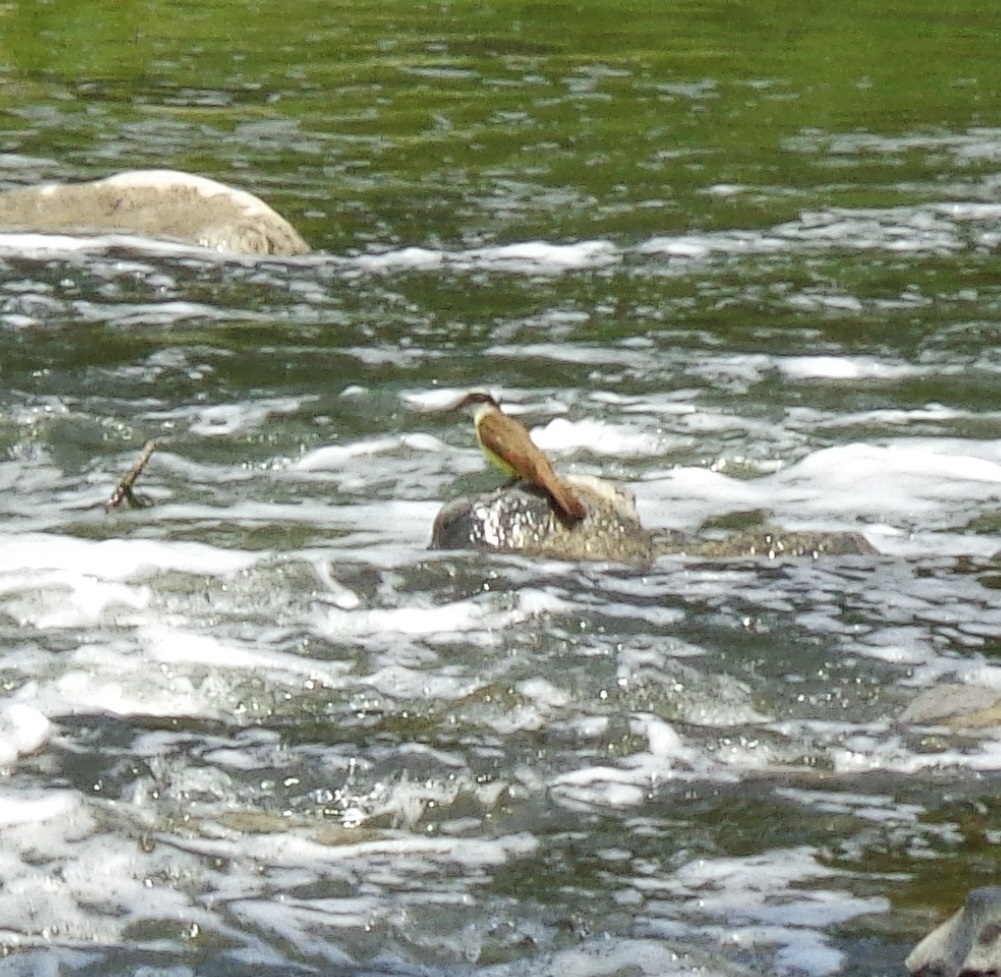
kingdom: Animalia
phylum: Chordata
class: Aves
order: Passeriformes
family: Tyrannidae
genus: Pitangus
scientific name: Pitangus sulphuratus
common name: Great kiskadee
